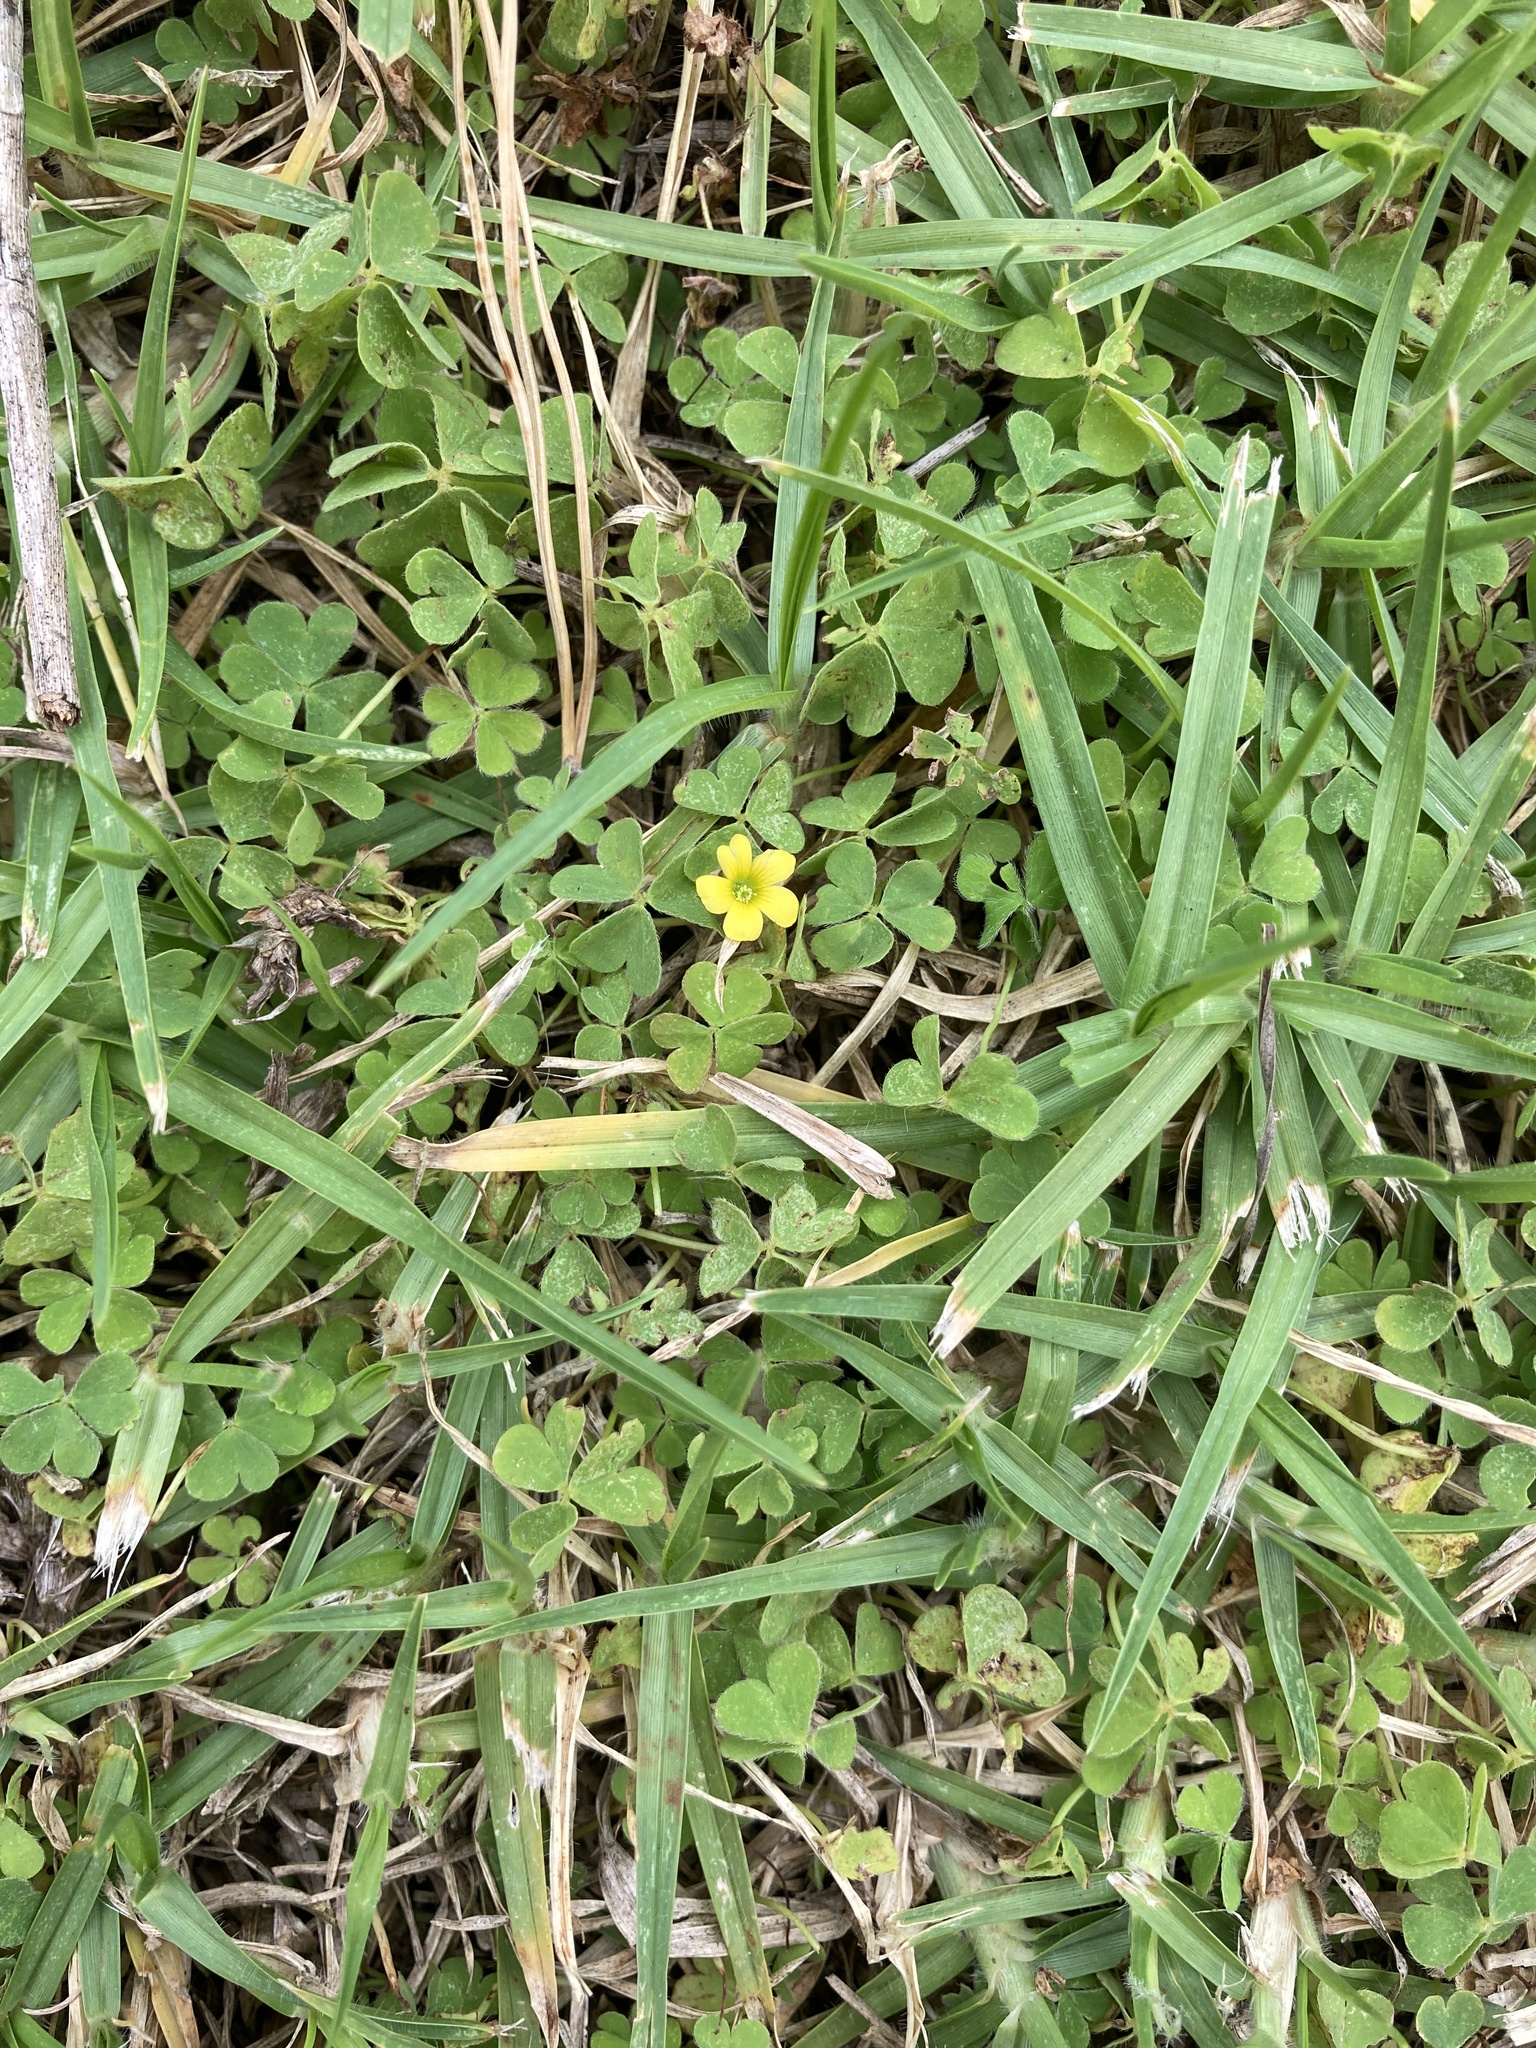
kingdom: Plantae
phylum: Tracheophyta
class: Magnoliopsida
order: Oxalidales
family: Oxalidaceae
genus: Oxalis
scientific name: Oxalis exilis
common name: Least yellow-sorrel
